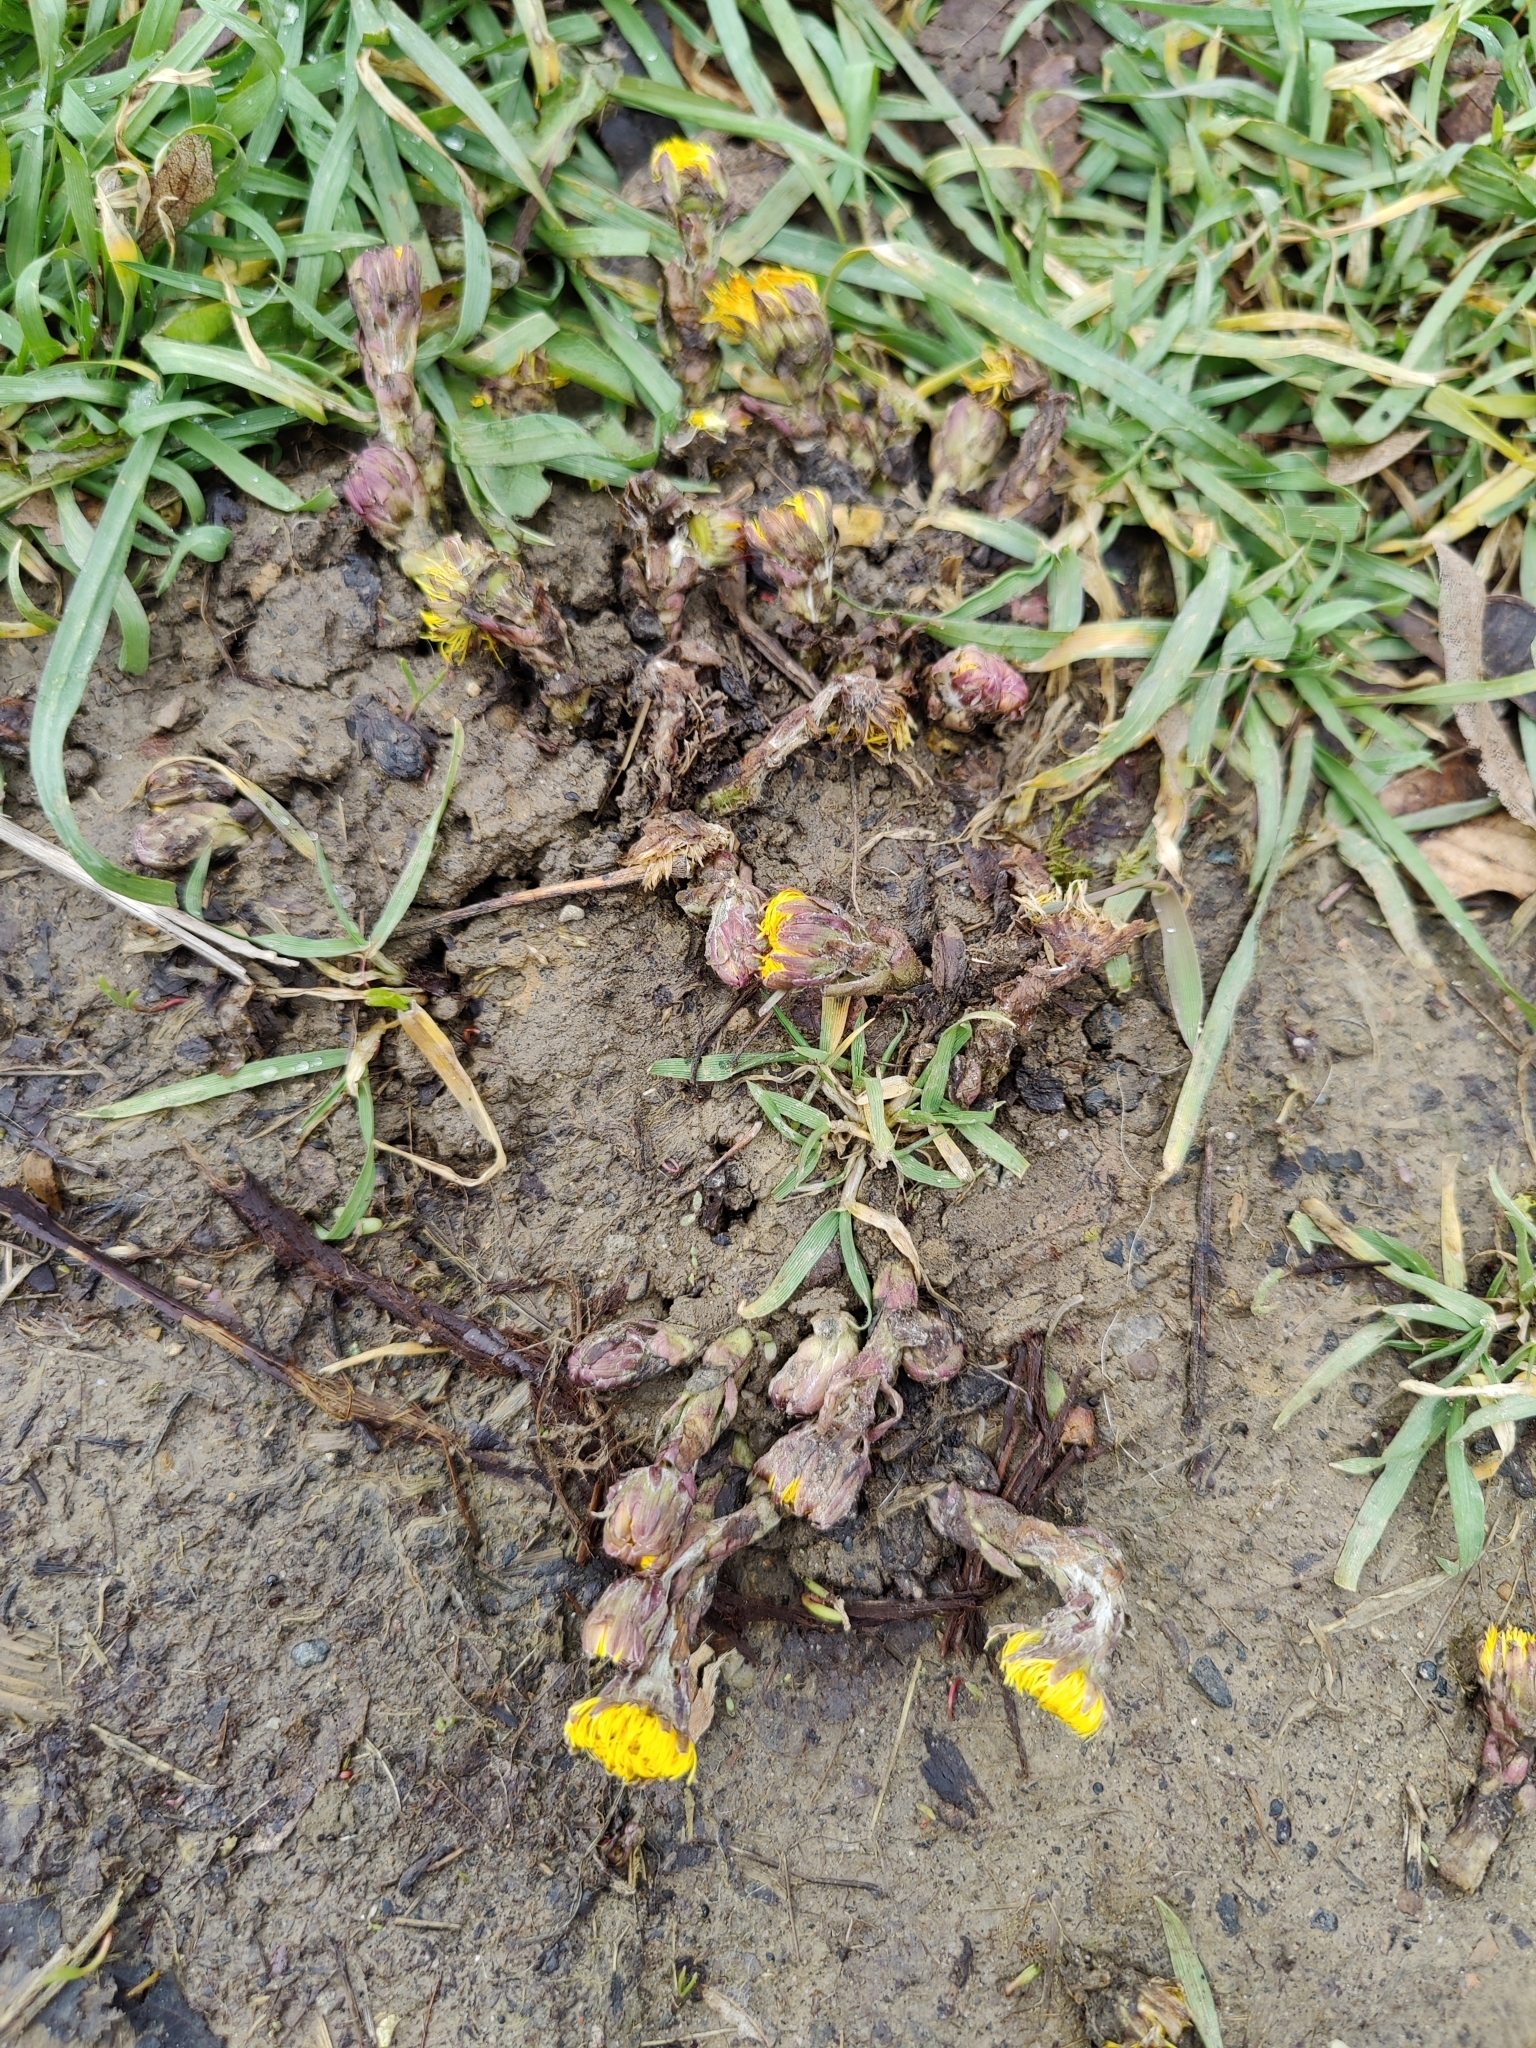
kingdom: Plantae
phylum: Tracheophyta
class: Magnoliopsida
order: Asterales
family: Asteraceae
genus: Tussilago
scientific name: Tussilago farfara
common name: Coltsfoot
